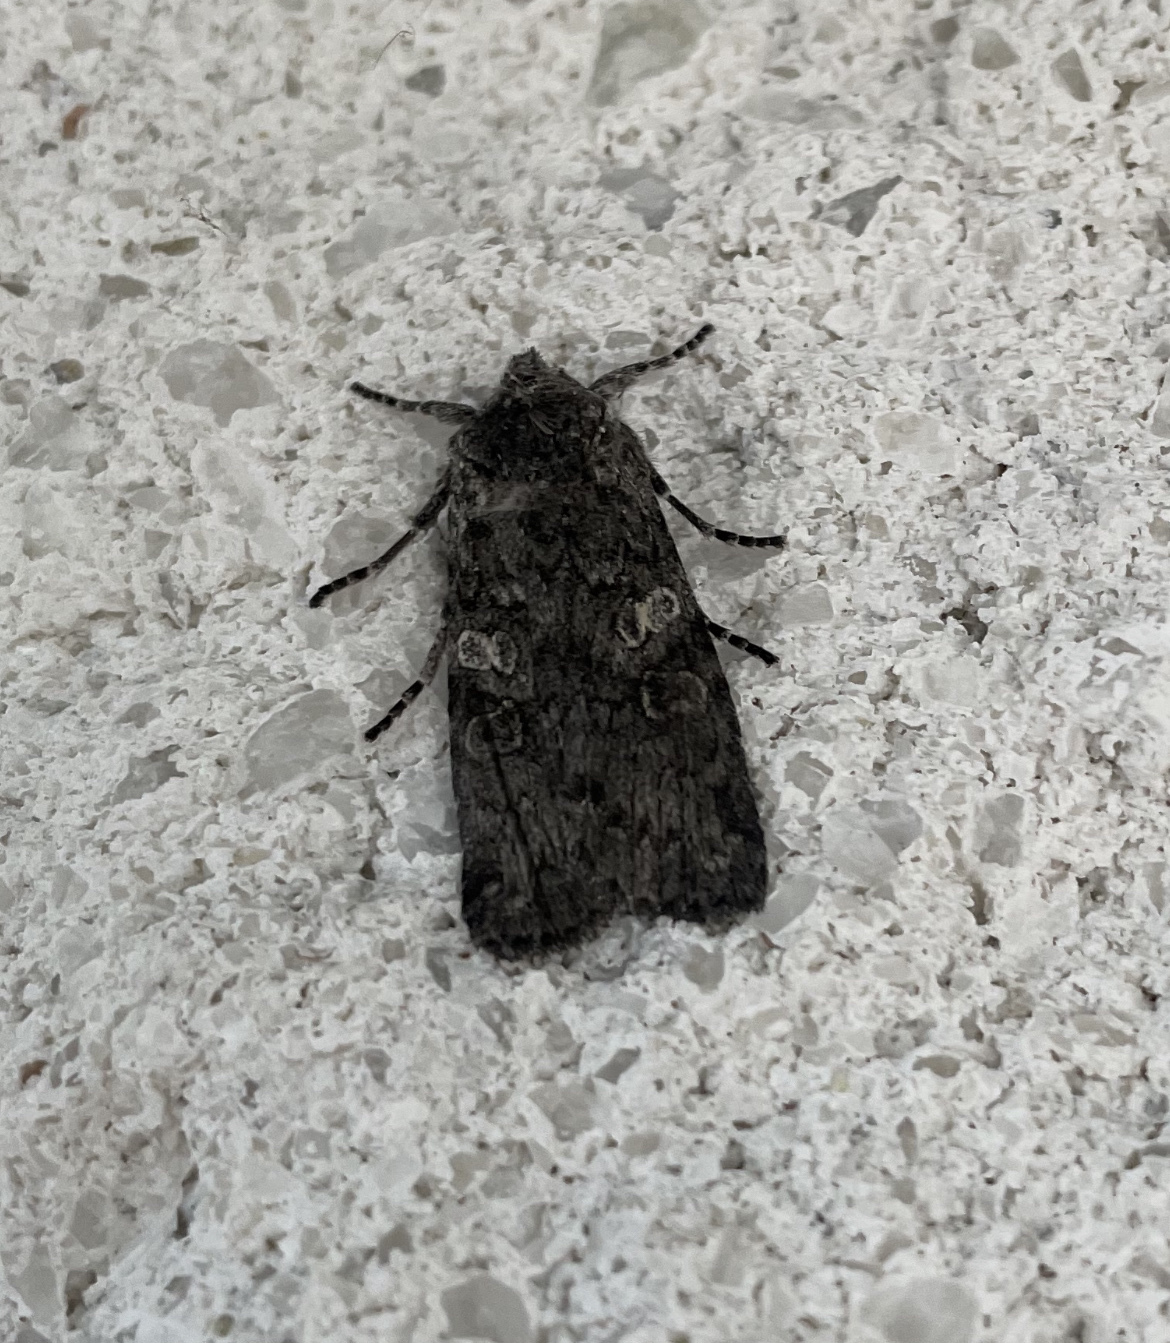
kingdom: Animalia
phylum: Arthropoda
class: Insecta
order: Lepidoptera
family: Noctuidae
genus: Lithophane
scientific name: Lithophane grotei
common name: Grote's pinion moth
